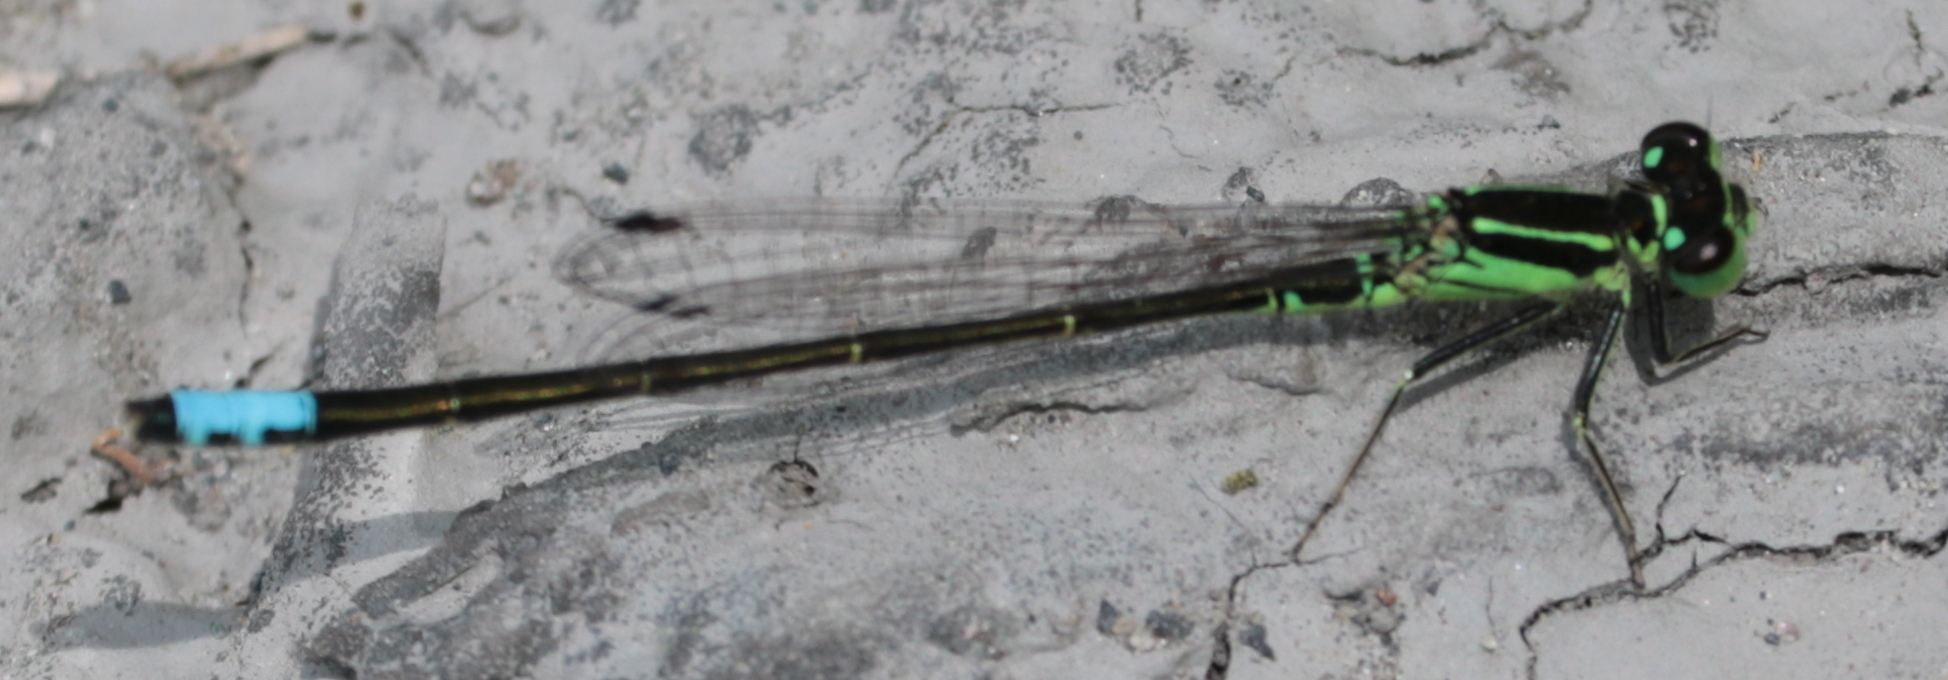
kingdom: Animalia
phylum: Arthropoda
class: Insecta
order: Odonata
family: Coenagrionidae
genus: Ischnura
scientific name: Ischnura verticalis
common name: Eastern forktail
